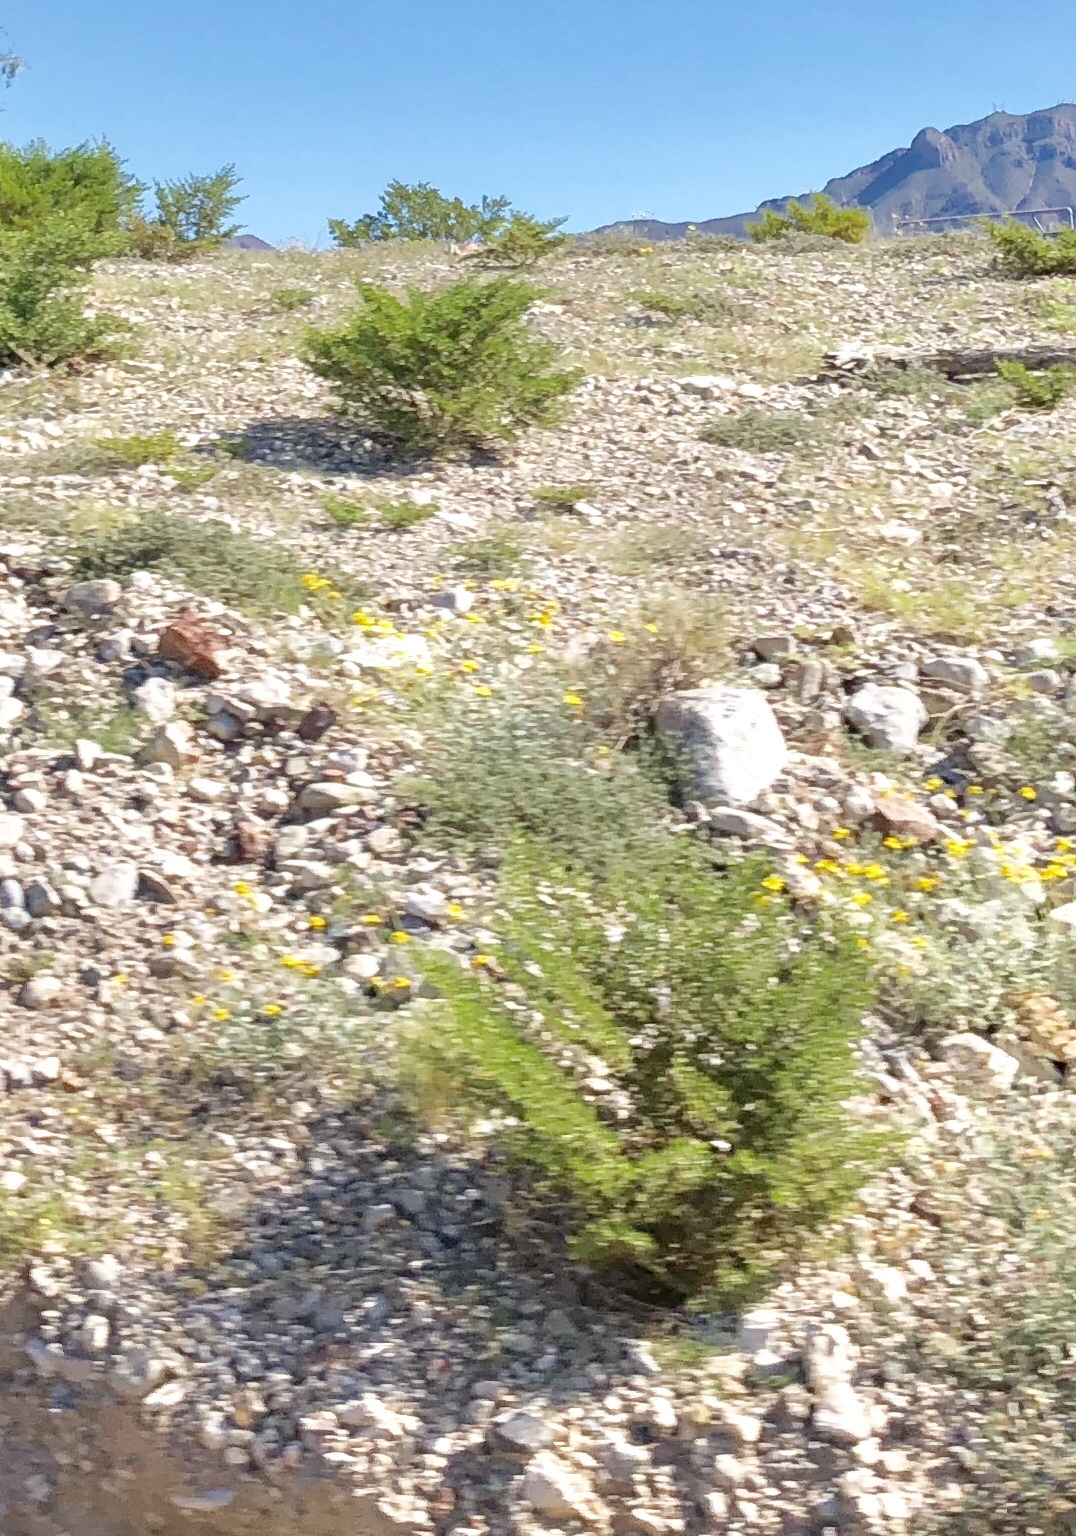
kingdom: Plantae
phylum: Tracheophyta
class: Magnoliopsida
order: Zygophyllales
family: Zygophyllaceae
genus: Larrea
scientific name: Larrea tridentata
